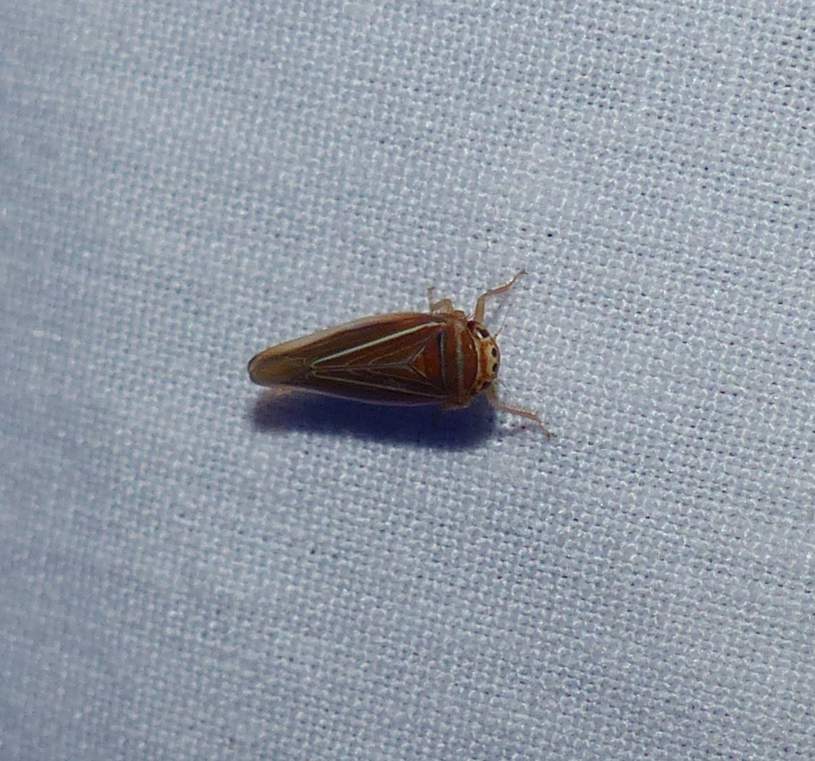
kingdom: Animalia
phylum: Arthropoda
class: Insecta
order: Hemiptera
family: Cicadellidae
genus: Idiodonus
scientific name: Idiodonus kennicotti
